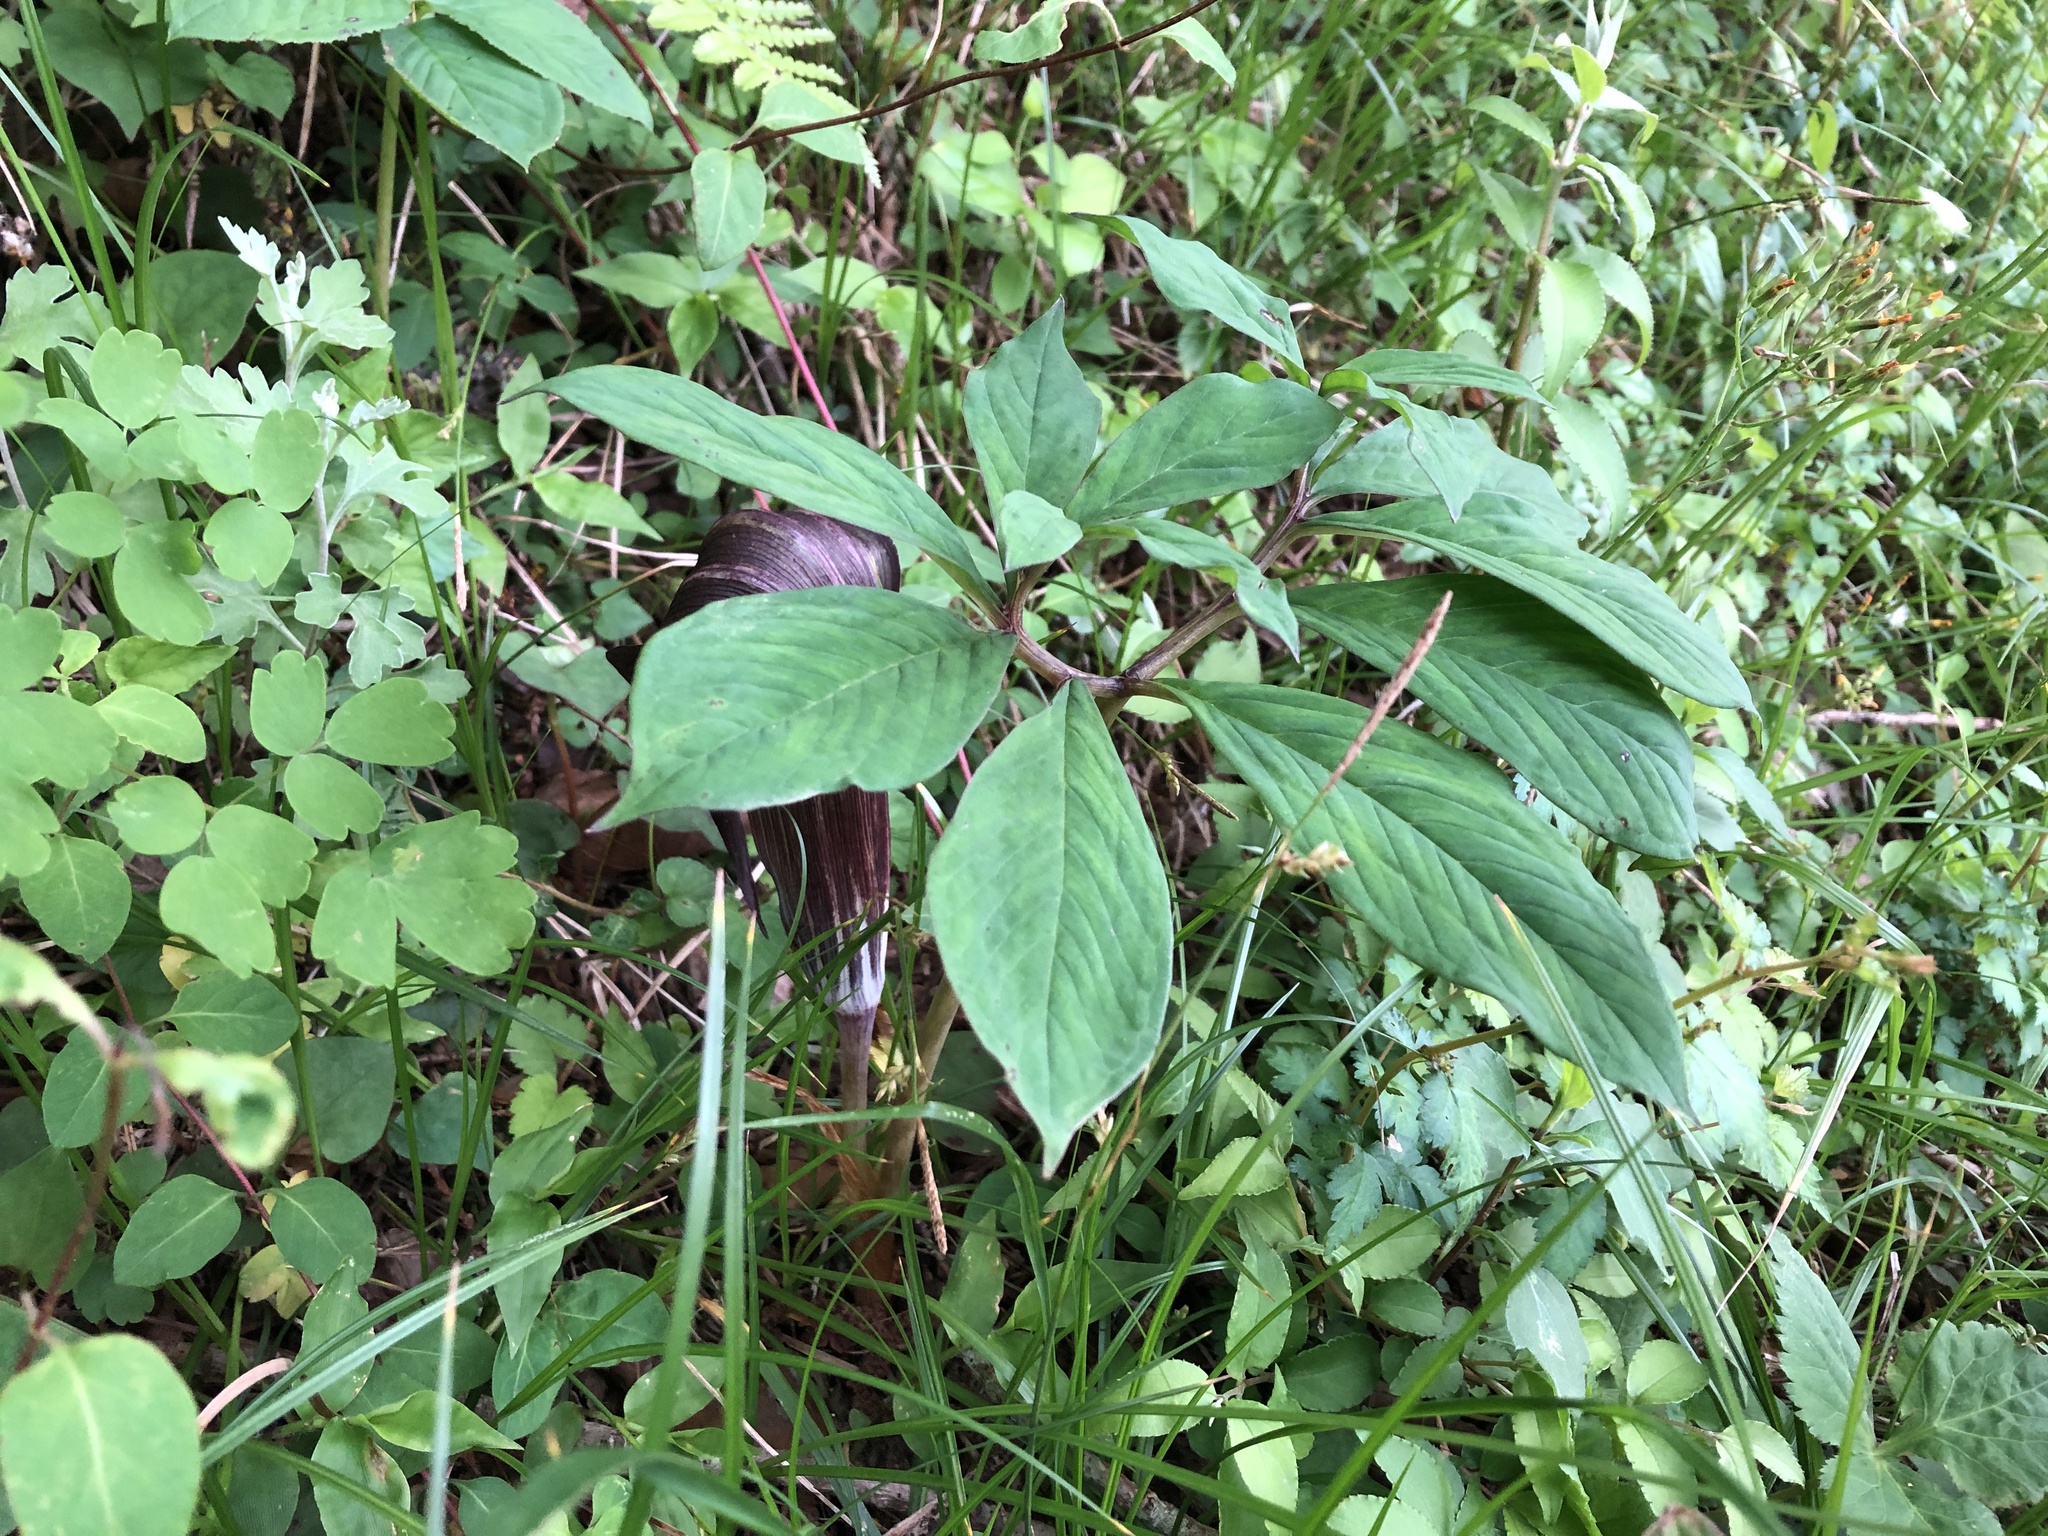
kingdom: Plantae
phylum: Tracheophyta
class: Liliopsida
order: Alismatales
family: Araceae
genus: Arisaema
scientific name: Arisaema serratum
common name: Japanese arisaema
